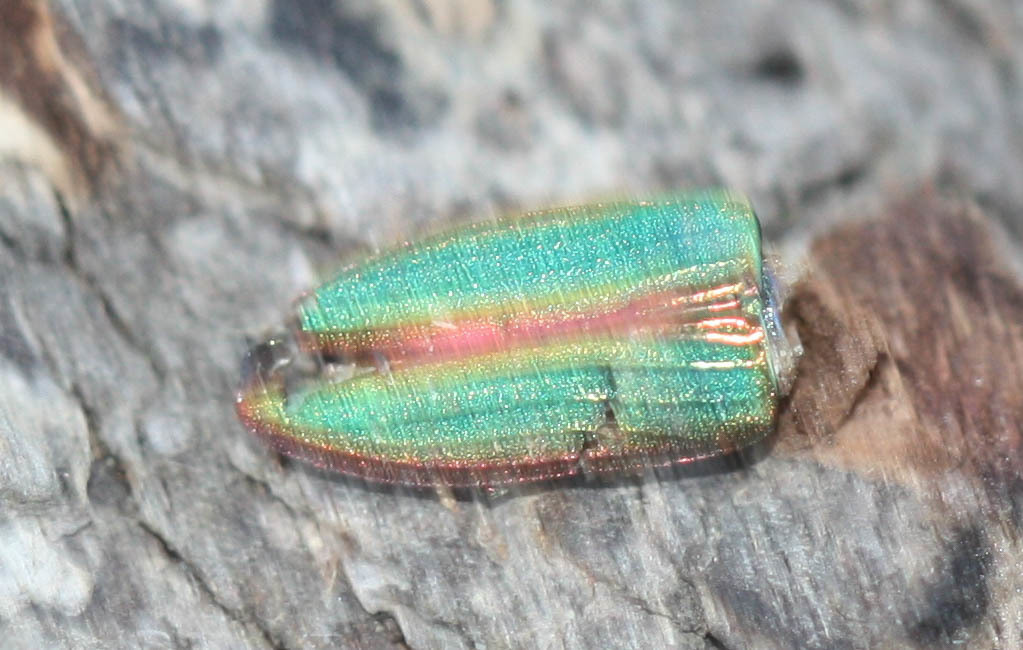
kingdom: Animalia
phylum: Arthropoda
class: Insecta
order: Coleoptera
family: Buprestidae
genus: Buprestis
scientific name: Buprestis aurulenta
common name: Golden buprestid
